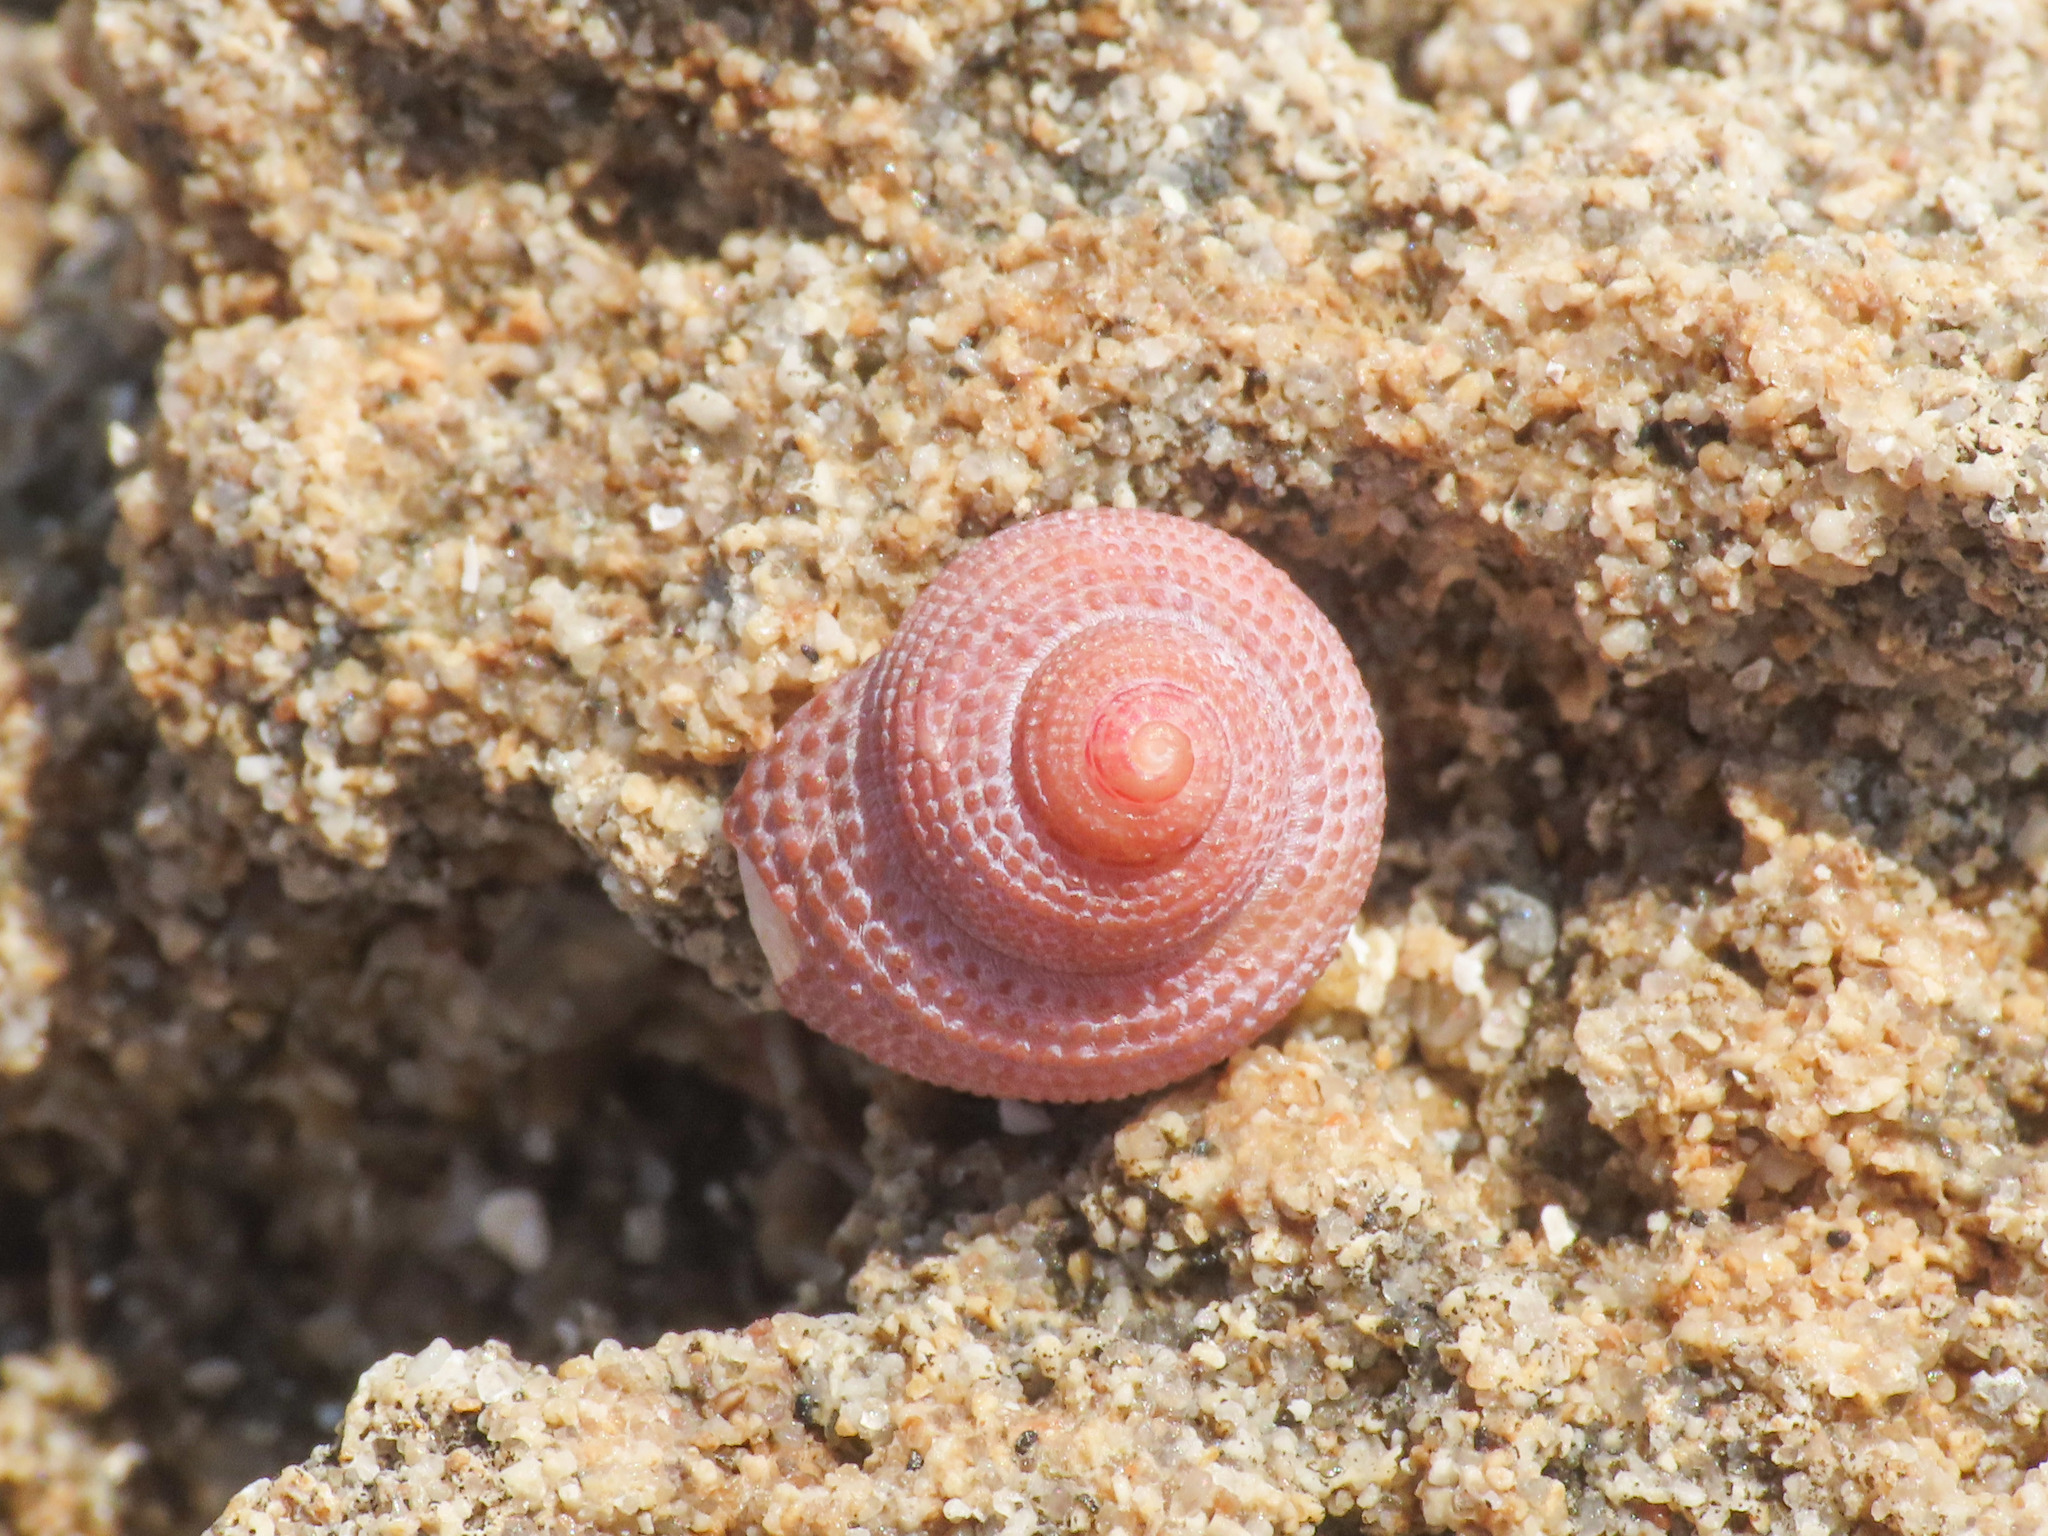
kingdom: Animalia
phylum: Mollusca
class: Gastropoda
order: Trochida
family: Trochidae
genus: Clanculus
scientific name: Clanculus corallinus
